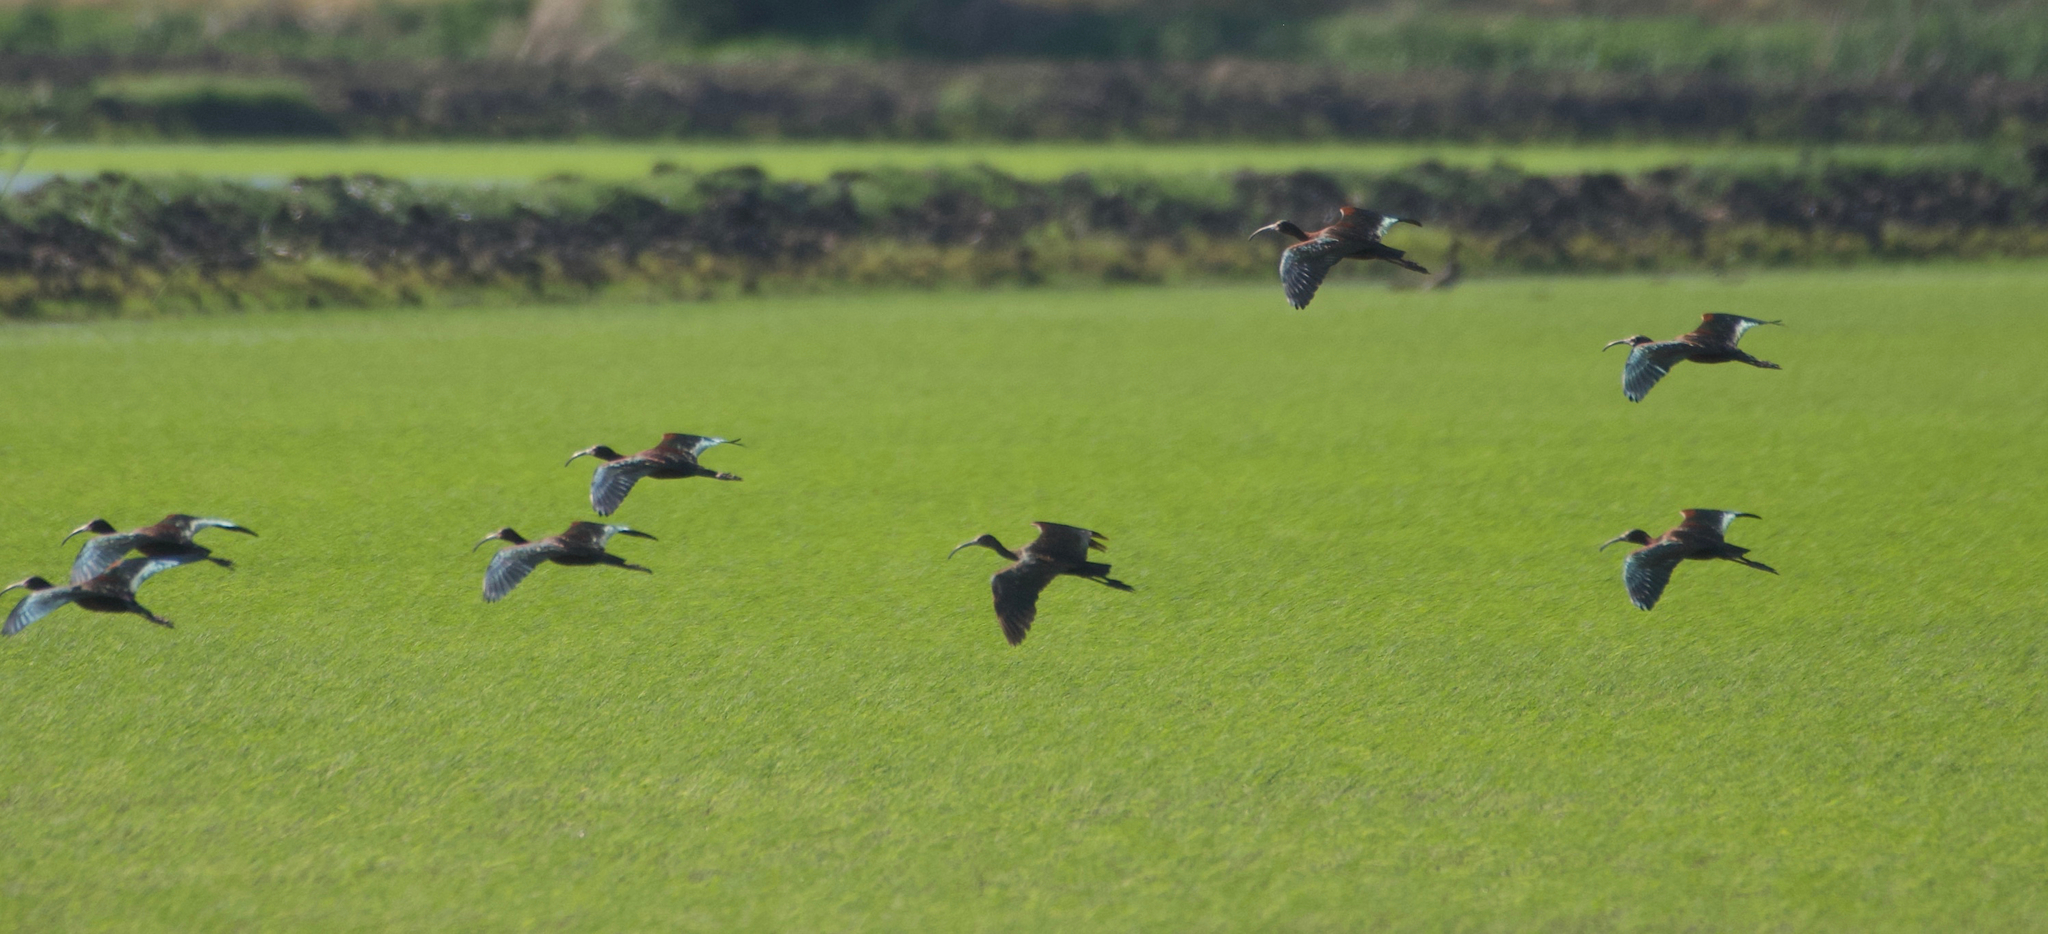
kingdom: Animalia
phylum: Chordata
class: Aves
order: Pelecaniformes
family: Threskiornithidae
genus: Plegadis
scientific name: Plegadis chihi
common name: White-faced ibis
